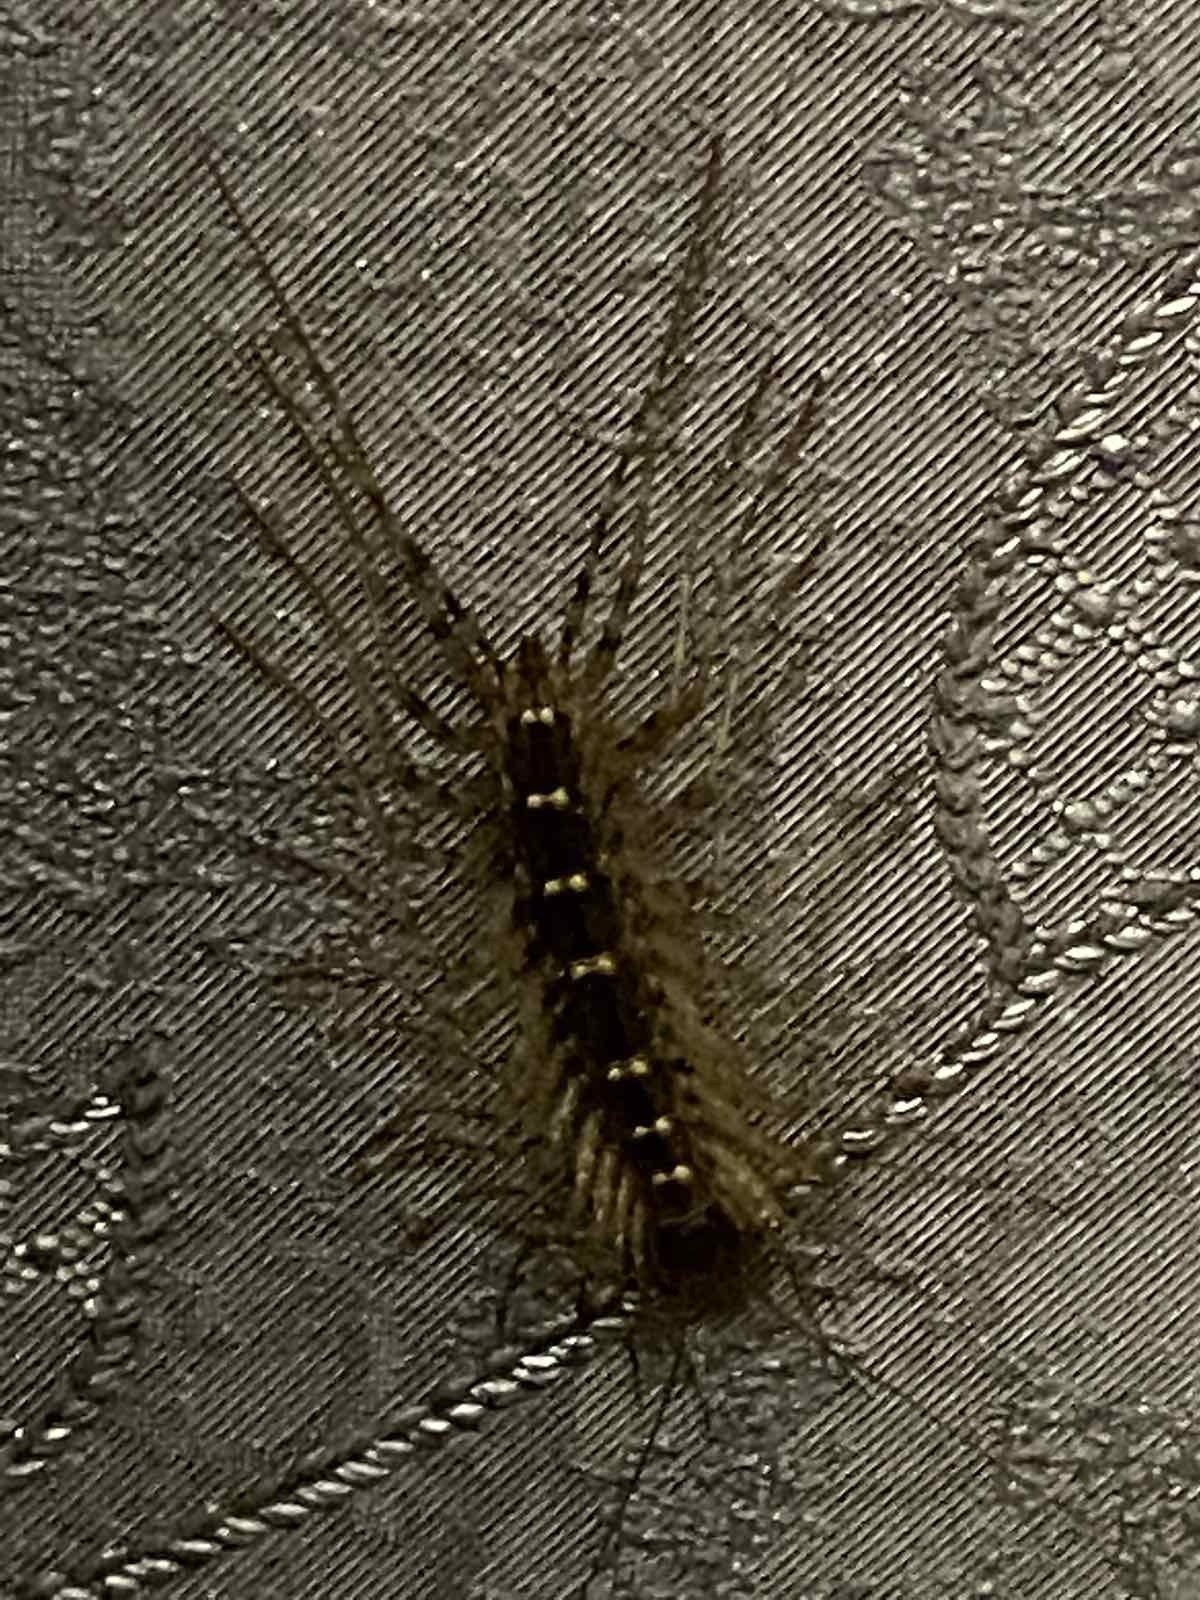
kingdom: Animalia
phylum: Arthropoda
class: Chilopoda
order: Scutigeromorpha
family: Scutigeridae
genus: Scutigera
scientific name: Scutigera coleoptrata
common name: House centipede
